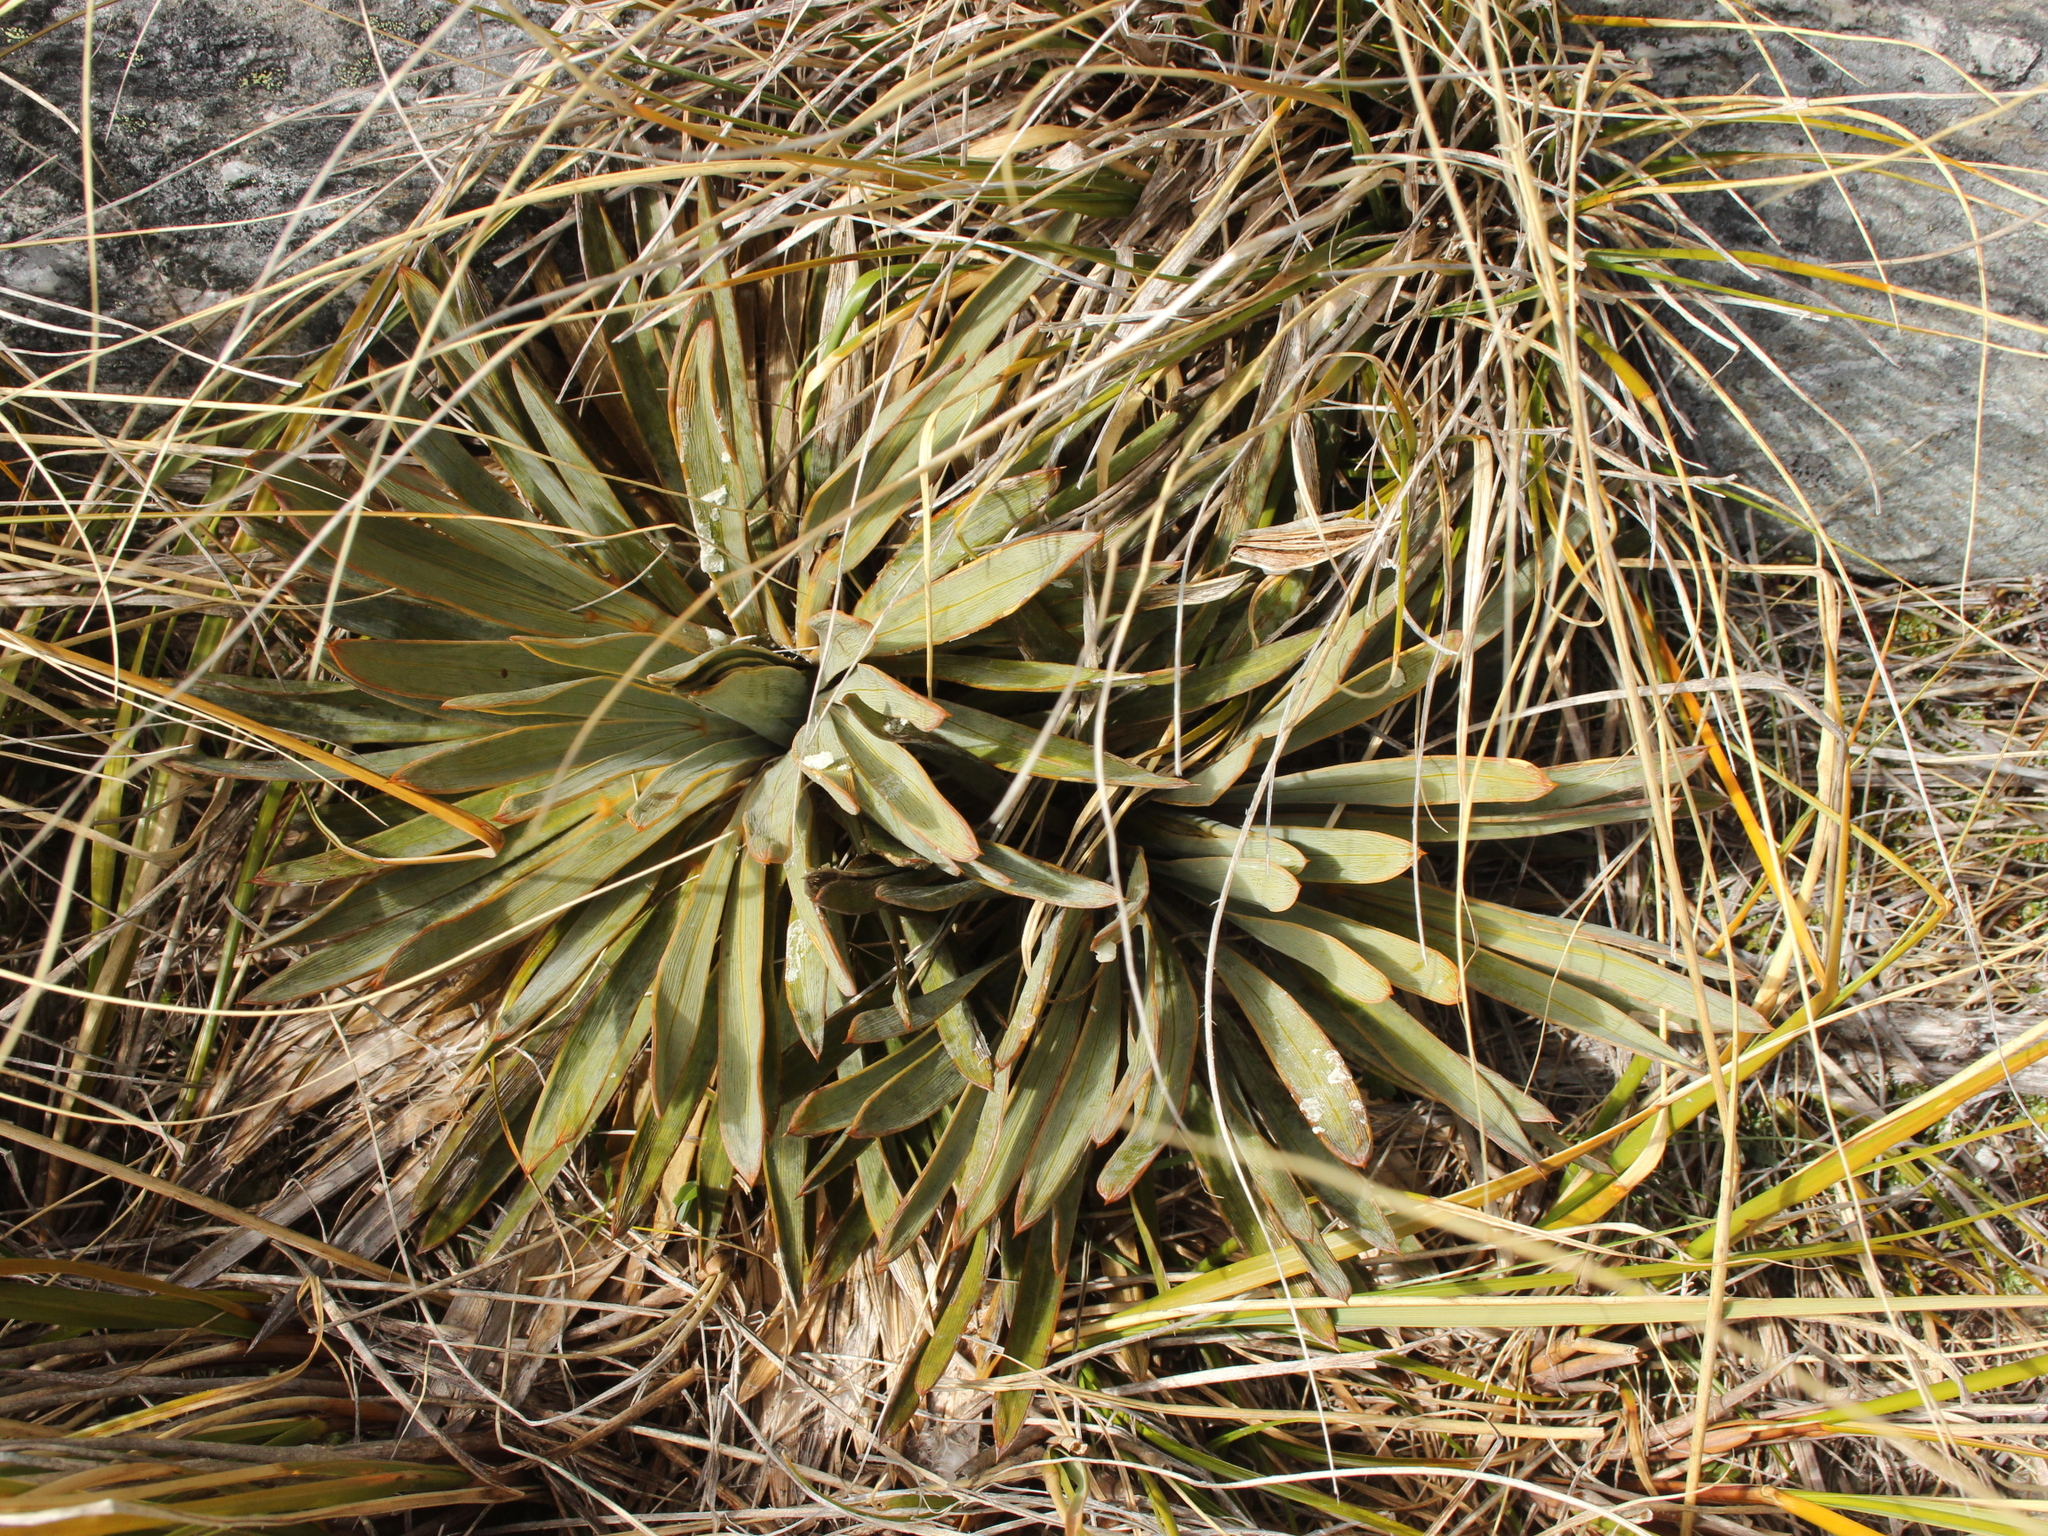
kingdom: Plantae
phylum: Tracheophyta
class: Magnoliopsida
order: Apiales
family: Apiaceae
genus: Aciphylla
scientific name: Aciphylla kirkii
